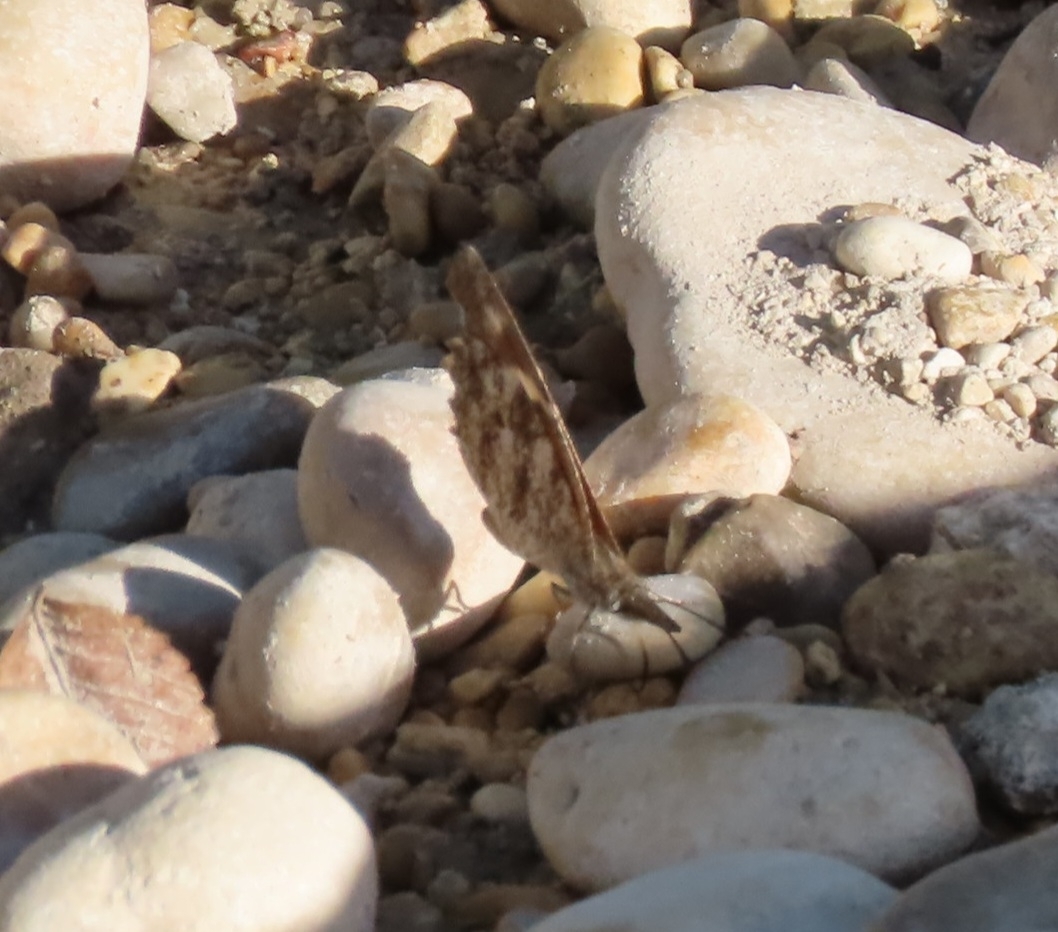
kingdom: Animalia
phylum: Arthropoda
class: Insecta
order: Lepidoptera
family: Nymphalidae
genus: Libytheana
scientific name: Libytheana carinenta
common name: American snout
